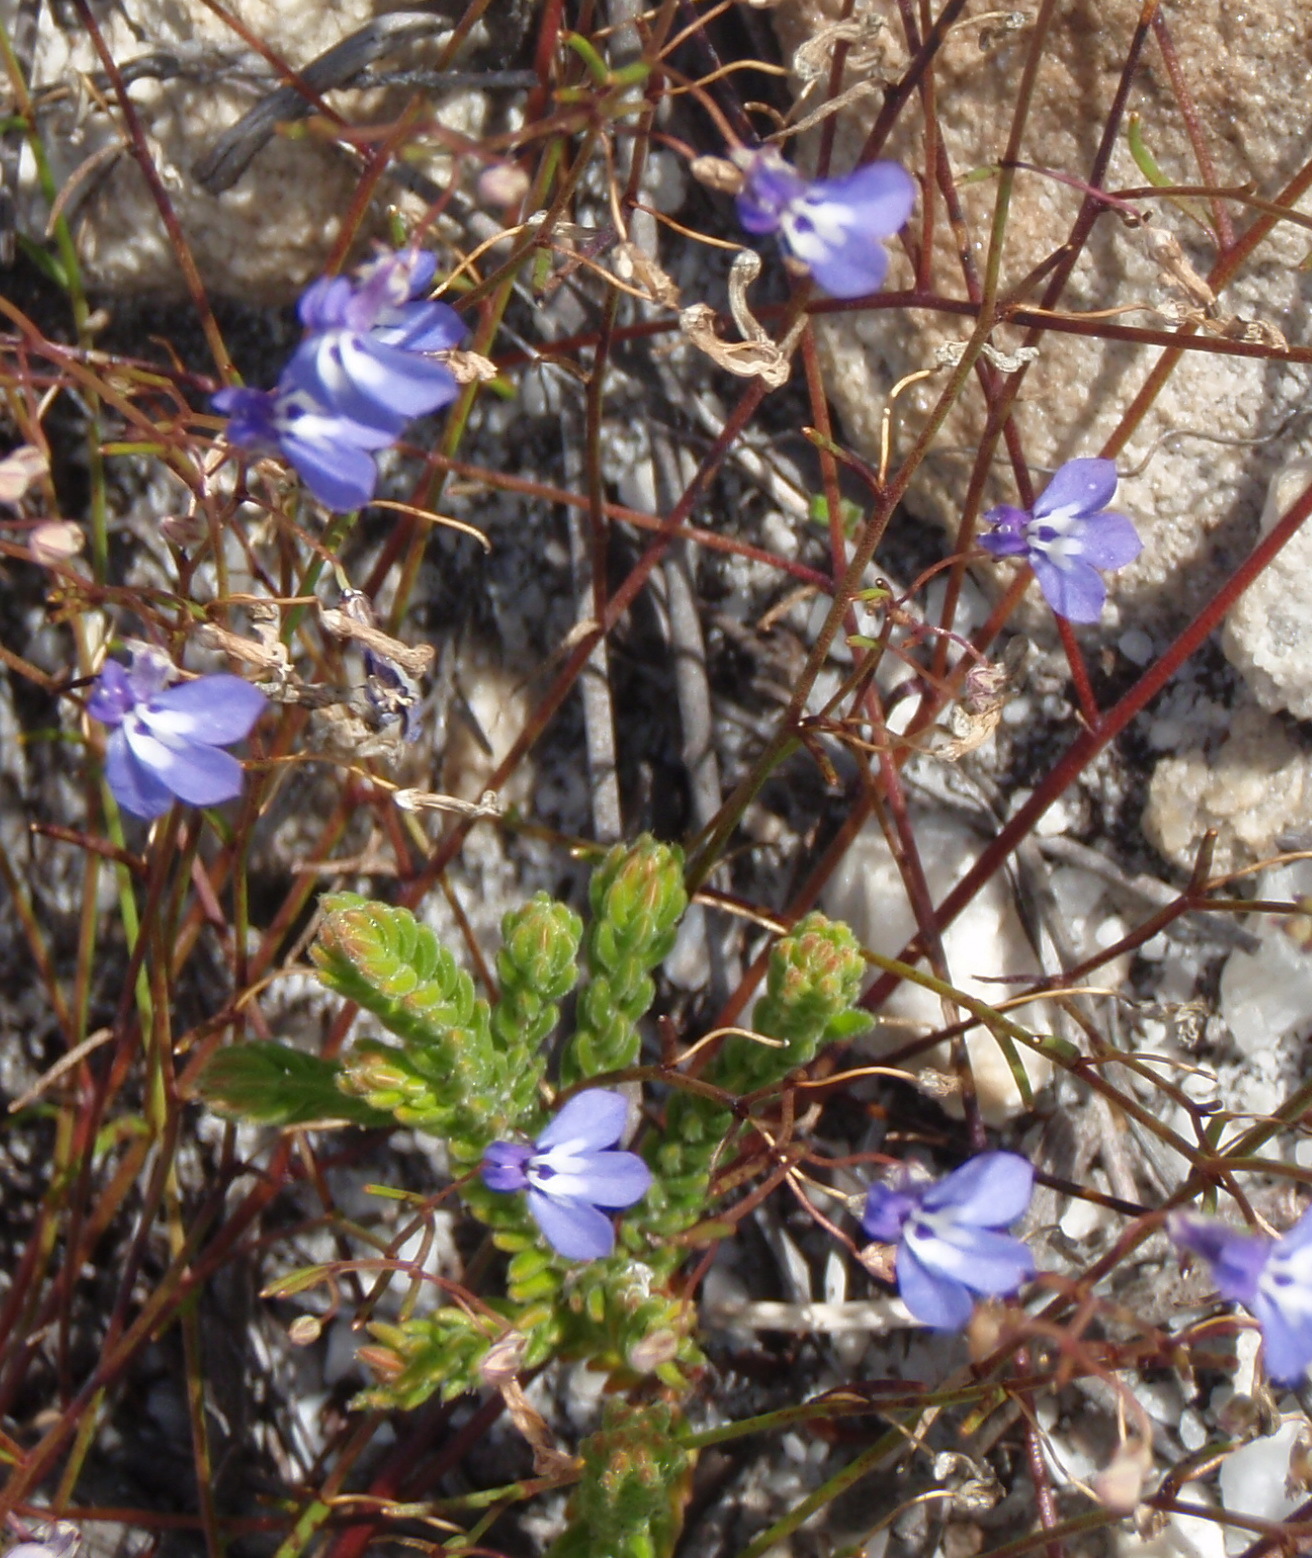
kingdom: Plantae
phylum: Tracheophyta
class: Magnoliopsida
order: Asterales
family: Campanulaceae
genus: Lobelia
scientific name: Lobelia setacea
